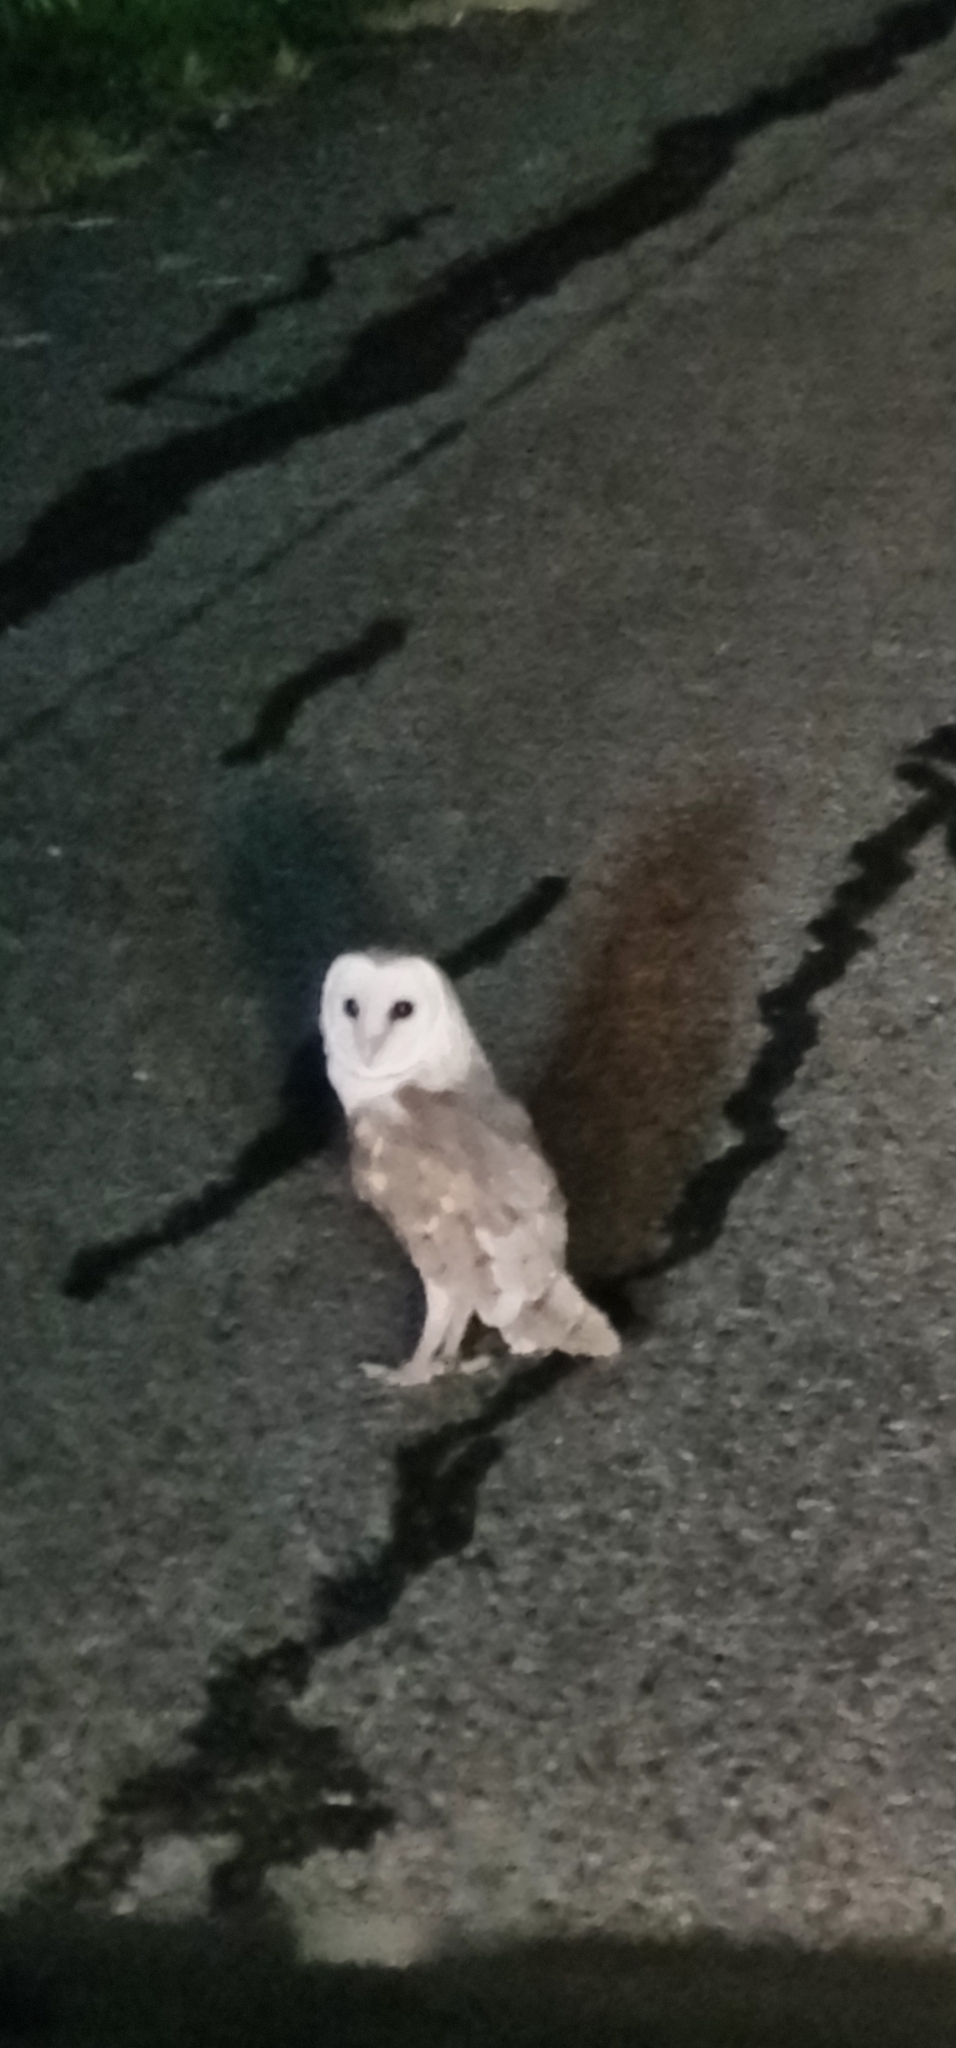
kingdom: Animalia
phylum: Chordata
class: Aves
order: Strigiformes
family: Tytonidae
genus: Tyto
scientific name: Tyto alba
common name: Barn owl
